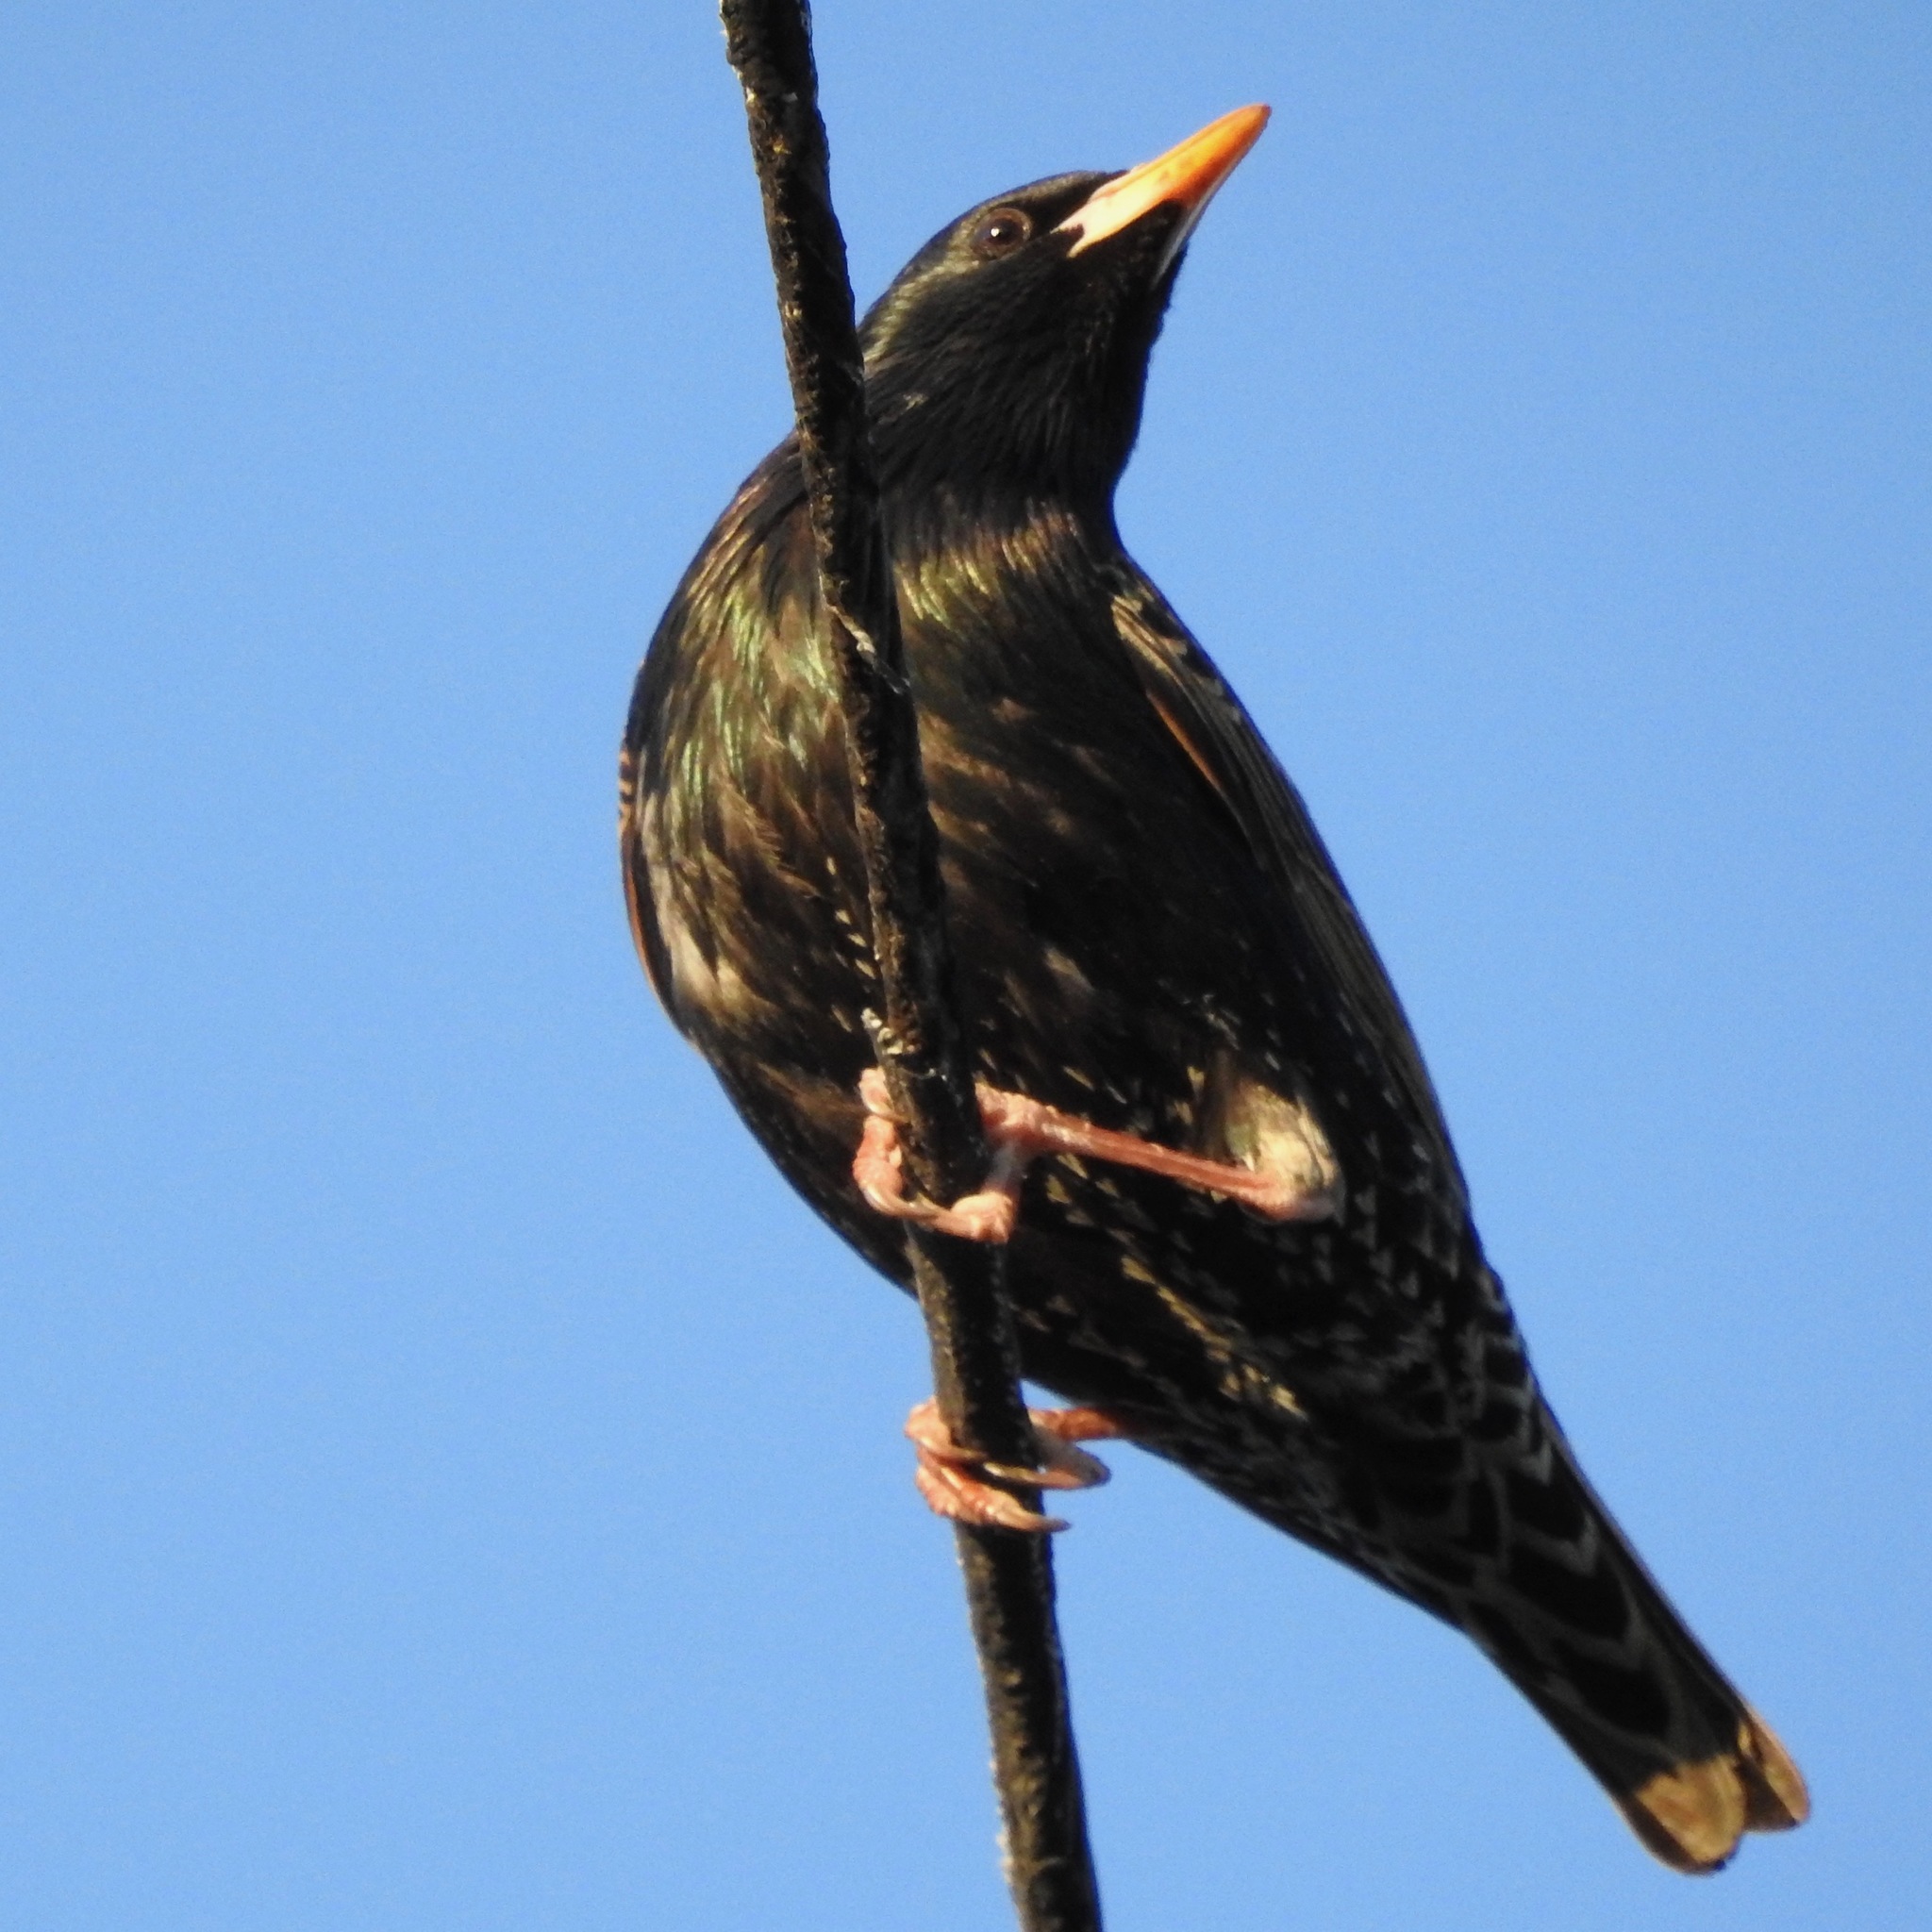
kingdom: Animalia
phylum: Chordata
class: Aves
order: Passeriformes
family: Sturnidae
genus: Sturnus
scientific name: Sturnus vulgaris
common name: Common starling
